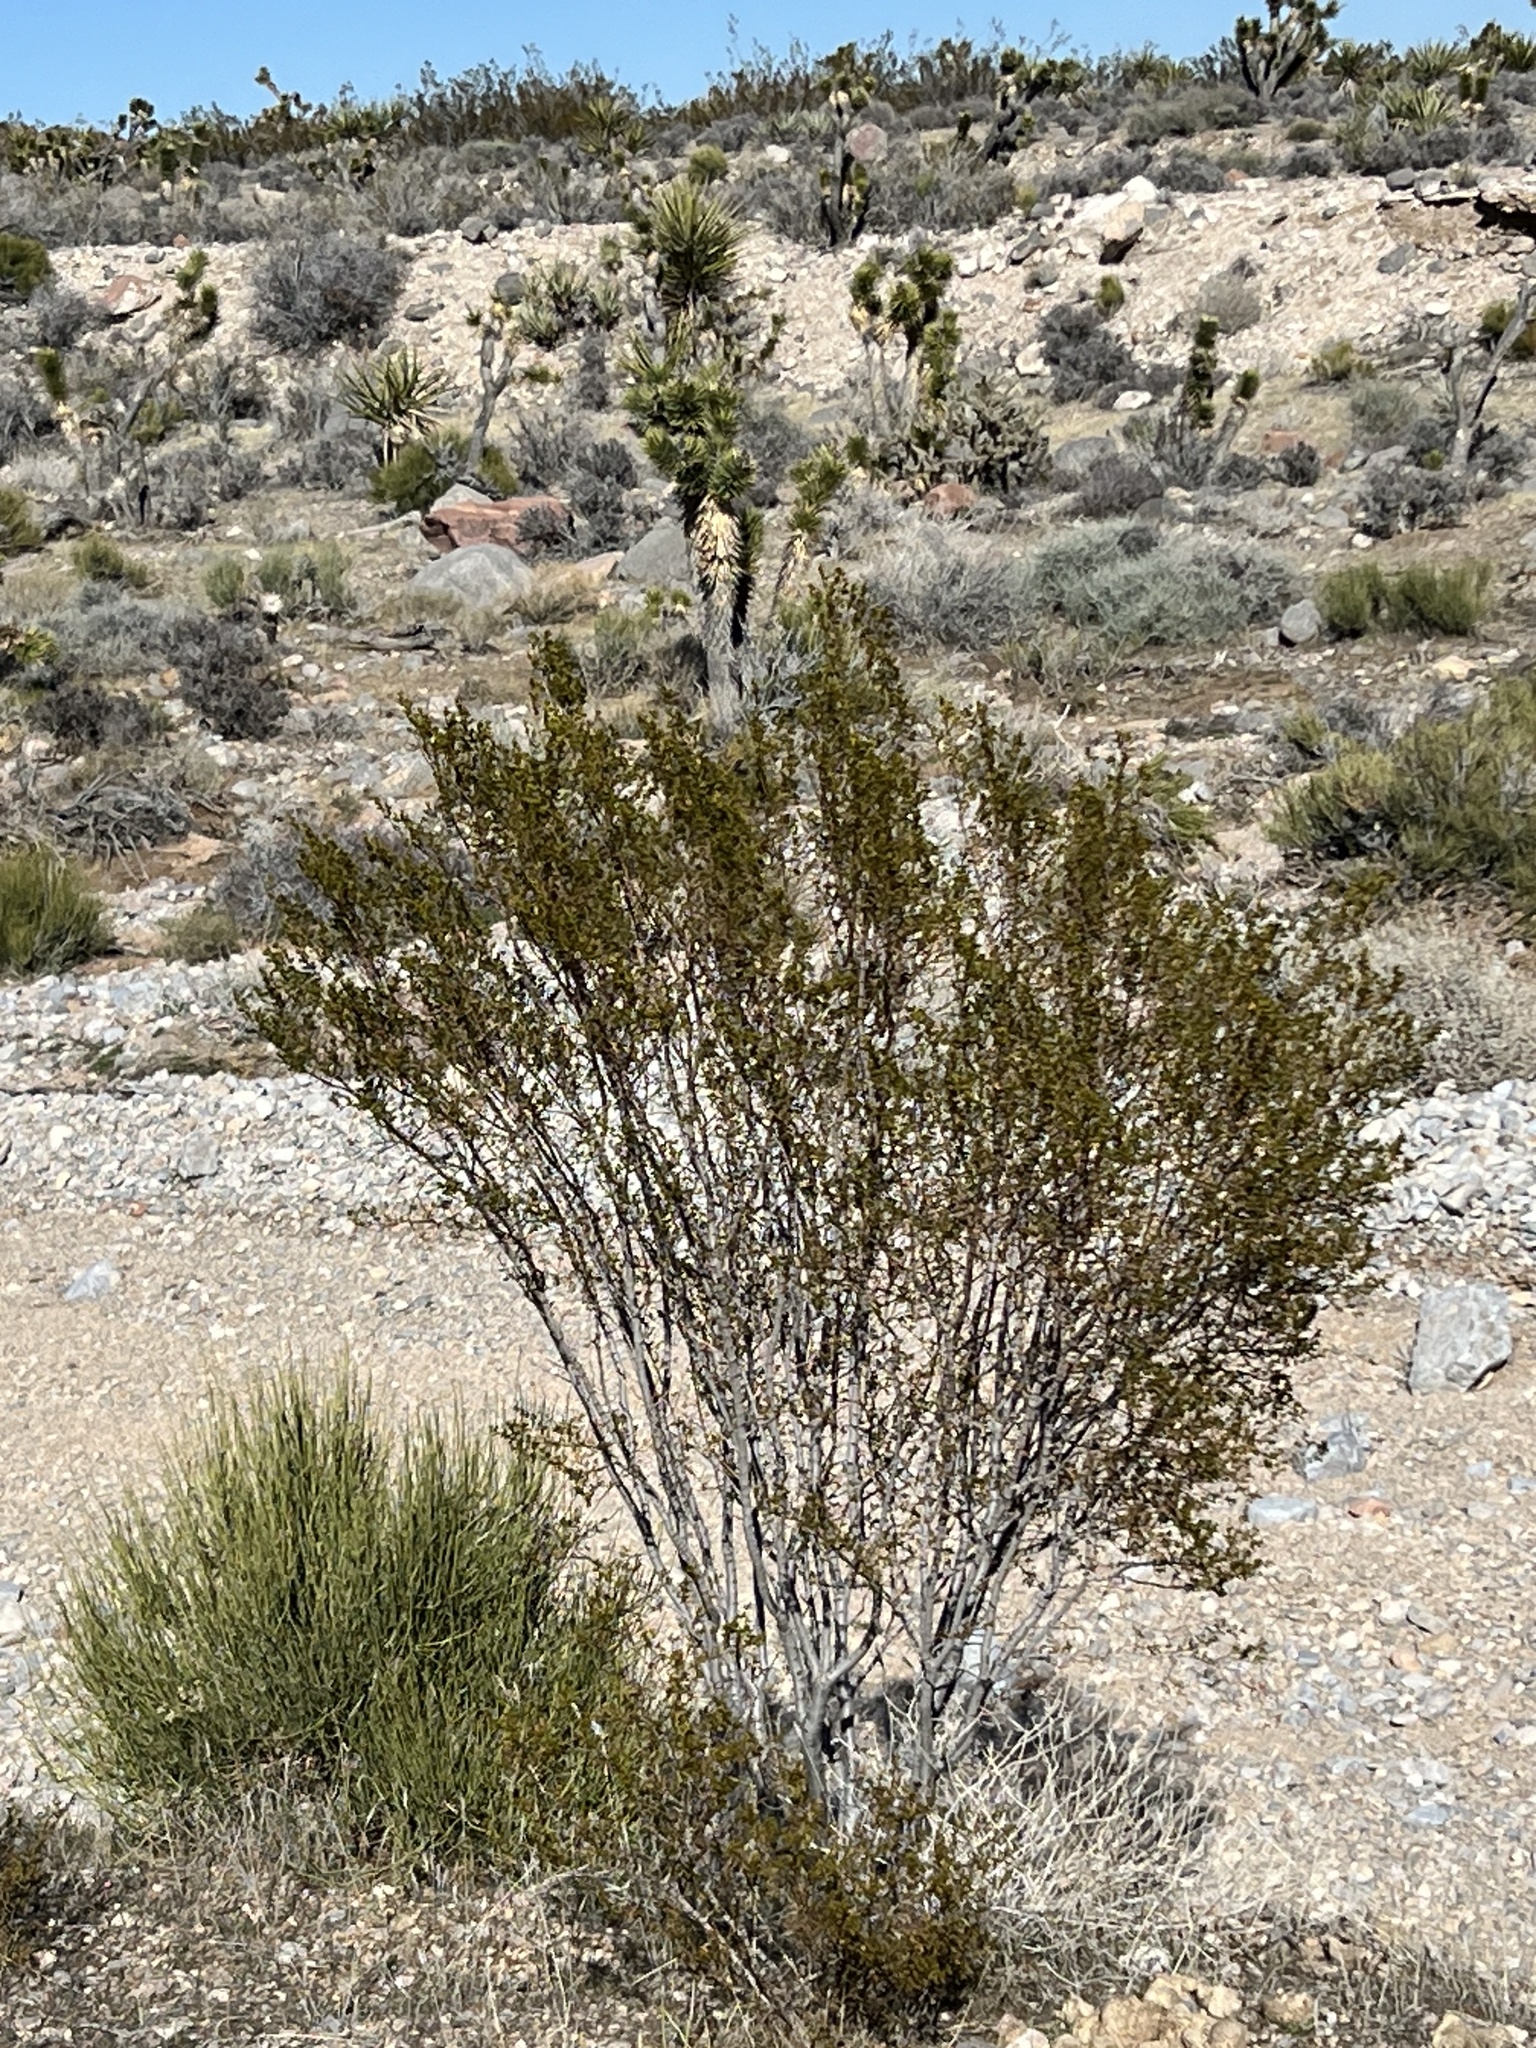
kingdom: Plantae
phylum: Tracheophyta
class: Magnoliopsida
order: Zygophyllales
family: Zygophyllaceae
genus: Larrea
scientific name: Larrea tridentata
